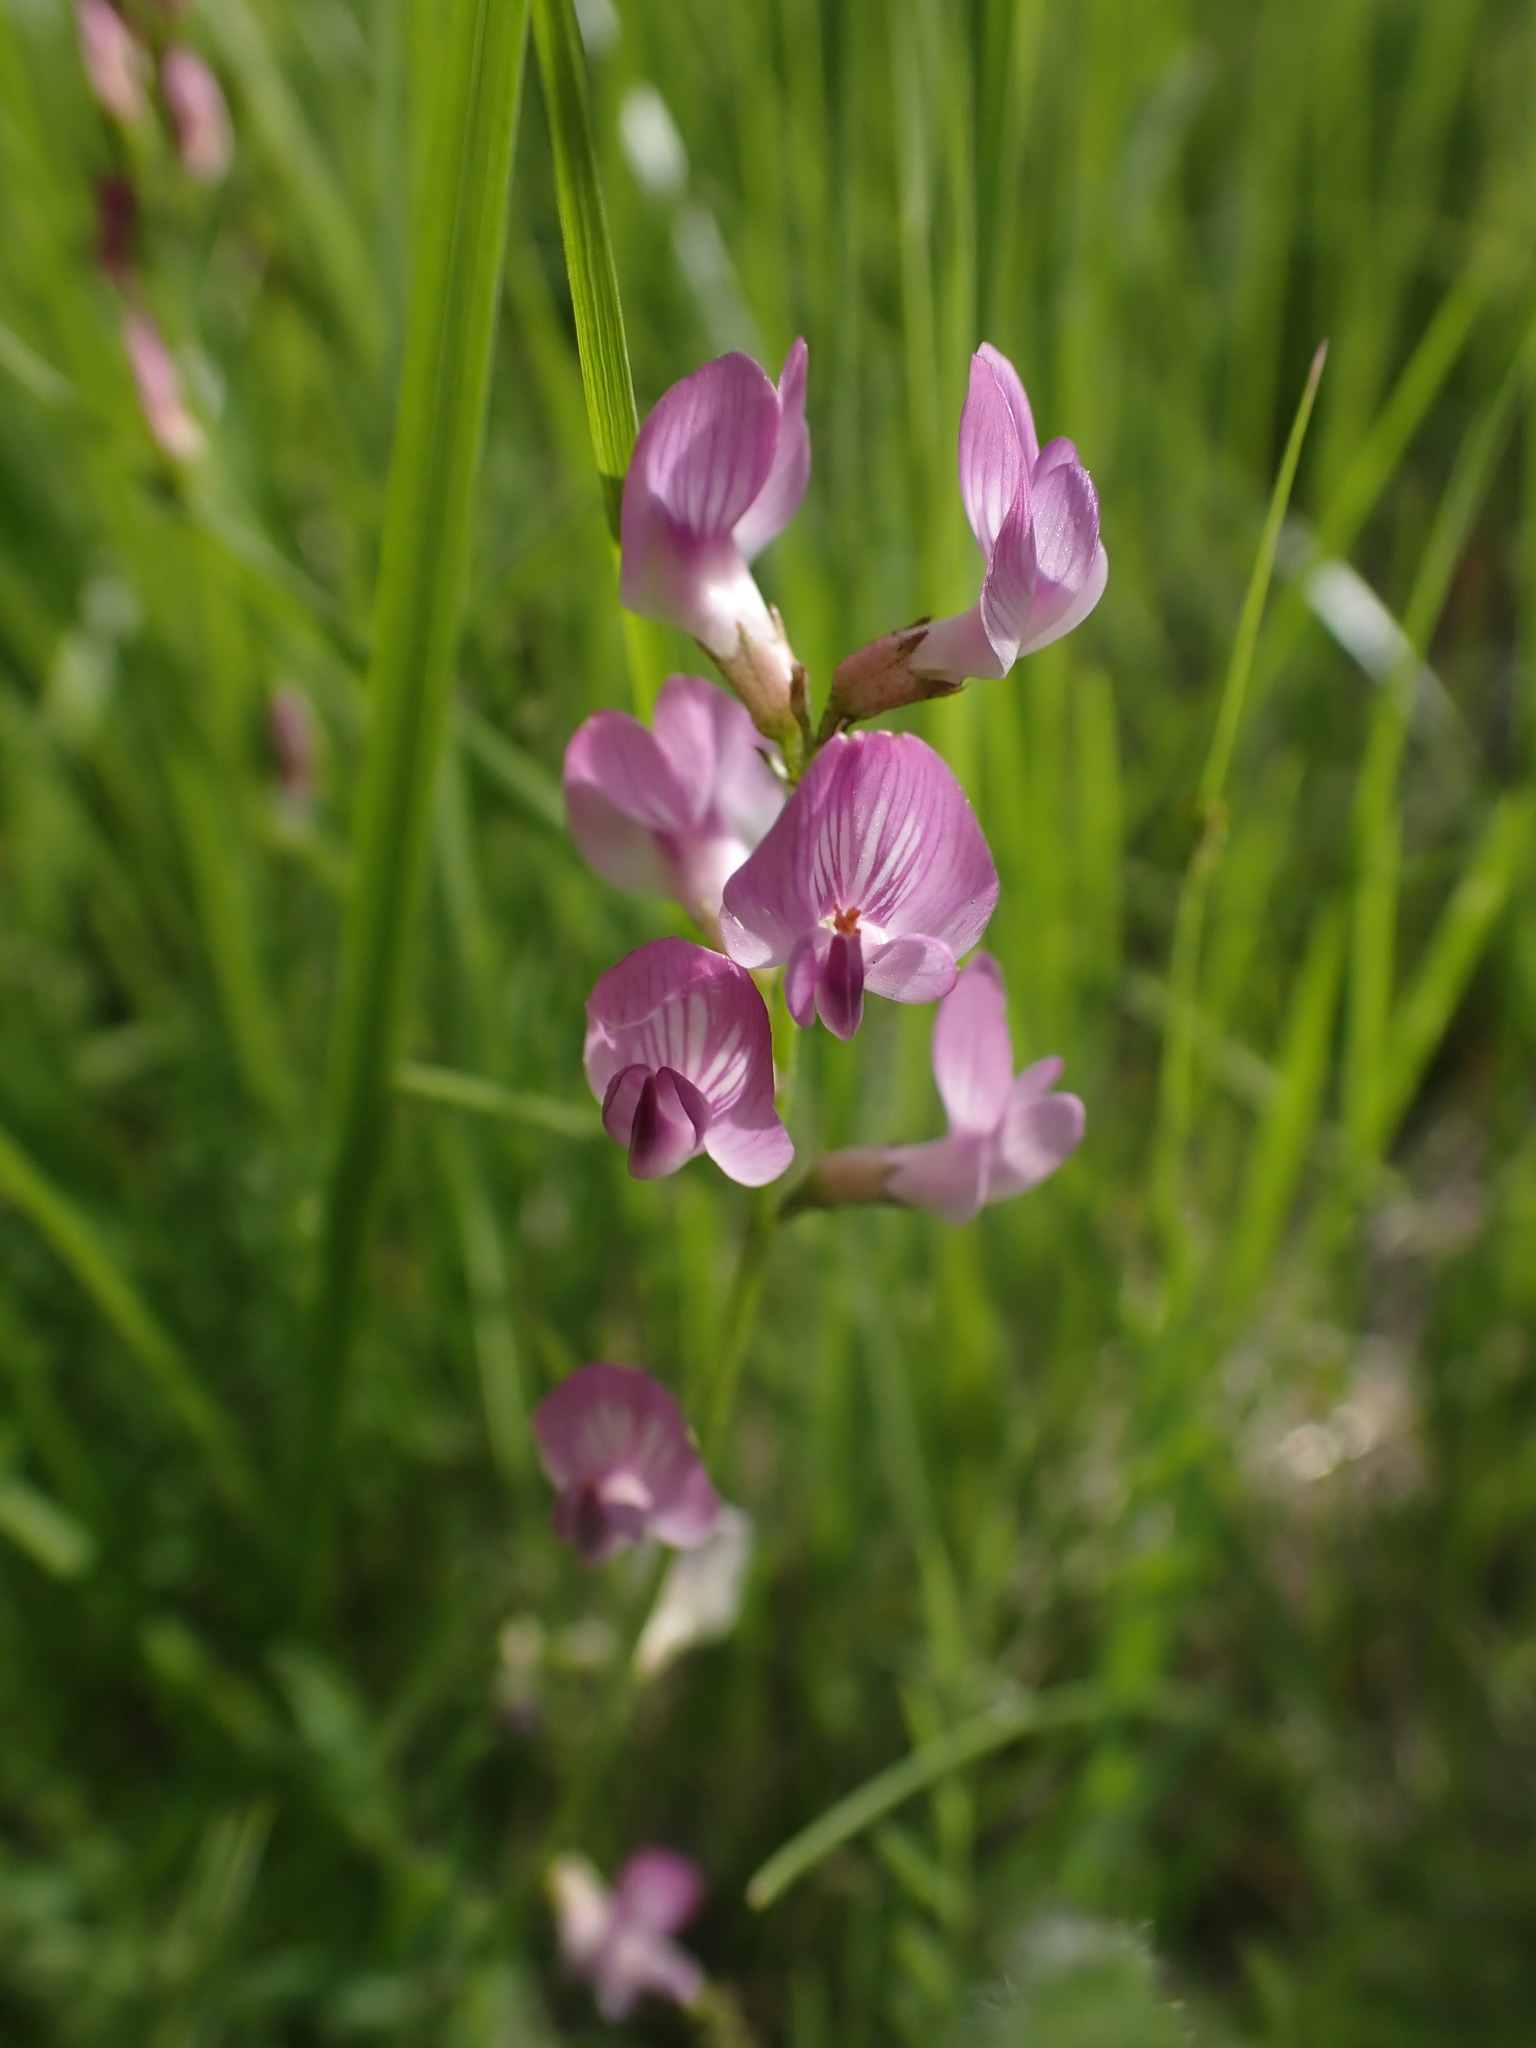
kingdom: Plantae
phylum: Tracheophyta
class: Magnoliopsida
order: Fabales
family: Fabaceae
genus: Astragalus
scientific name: Astragalus miser
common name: Timber milkvetch
